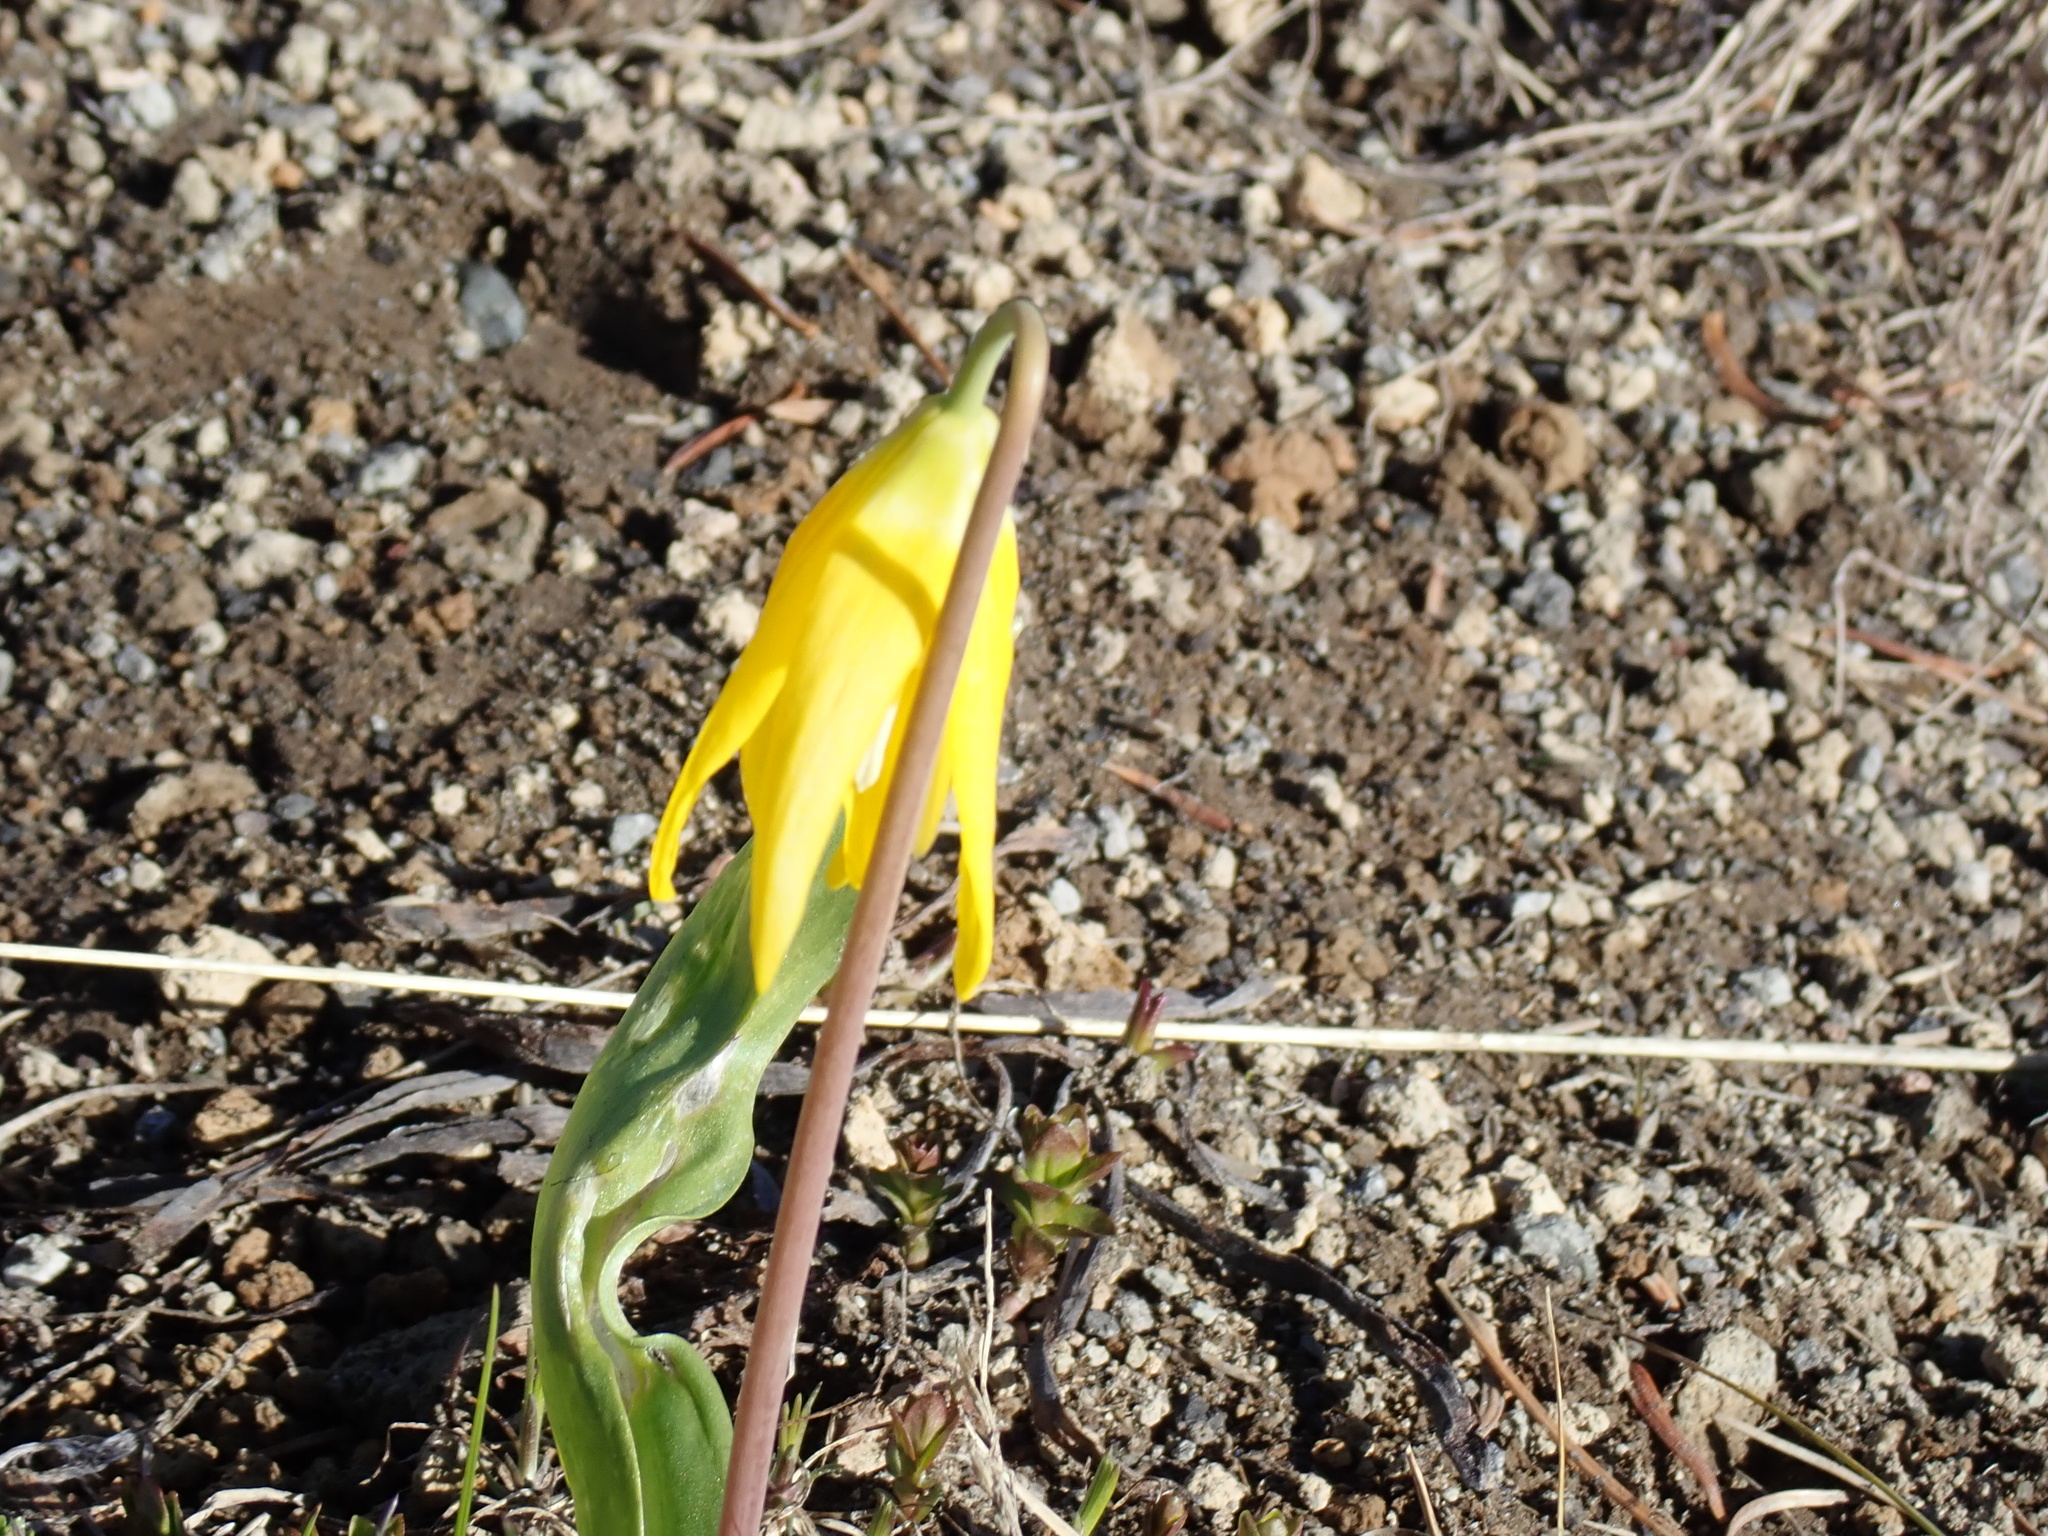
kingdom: Plantae
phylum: Tracheophyta
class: Liliopsida
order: Liliales
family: Liliaceae
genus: Erythronium
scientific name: Erythronium grandiflorum
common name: Avalanche-lily
